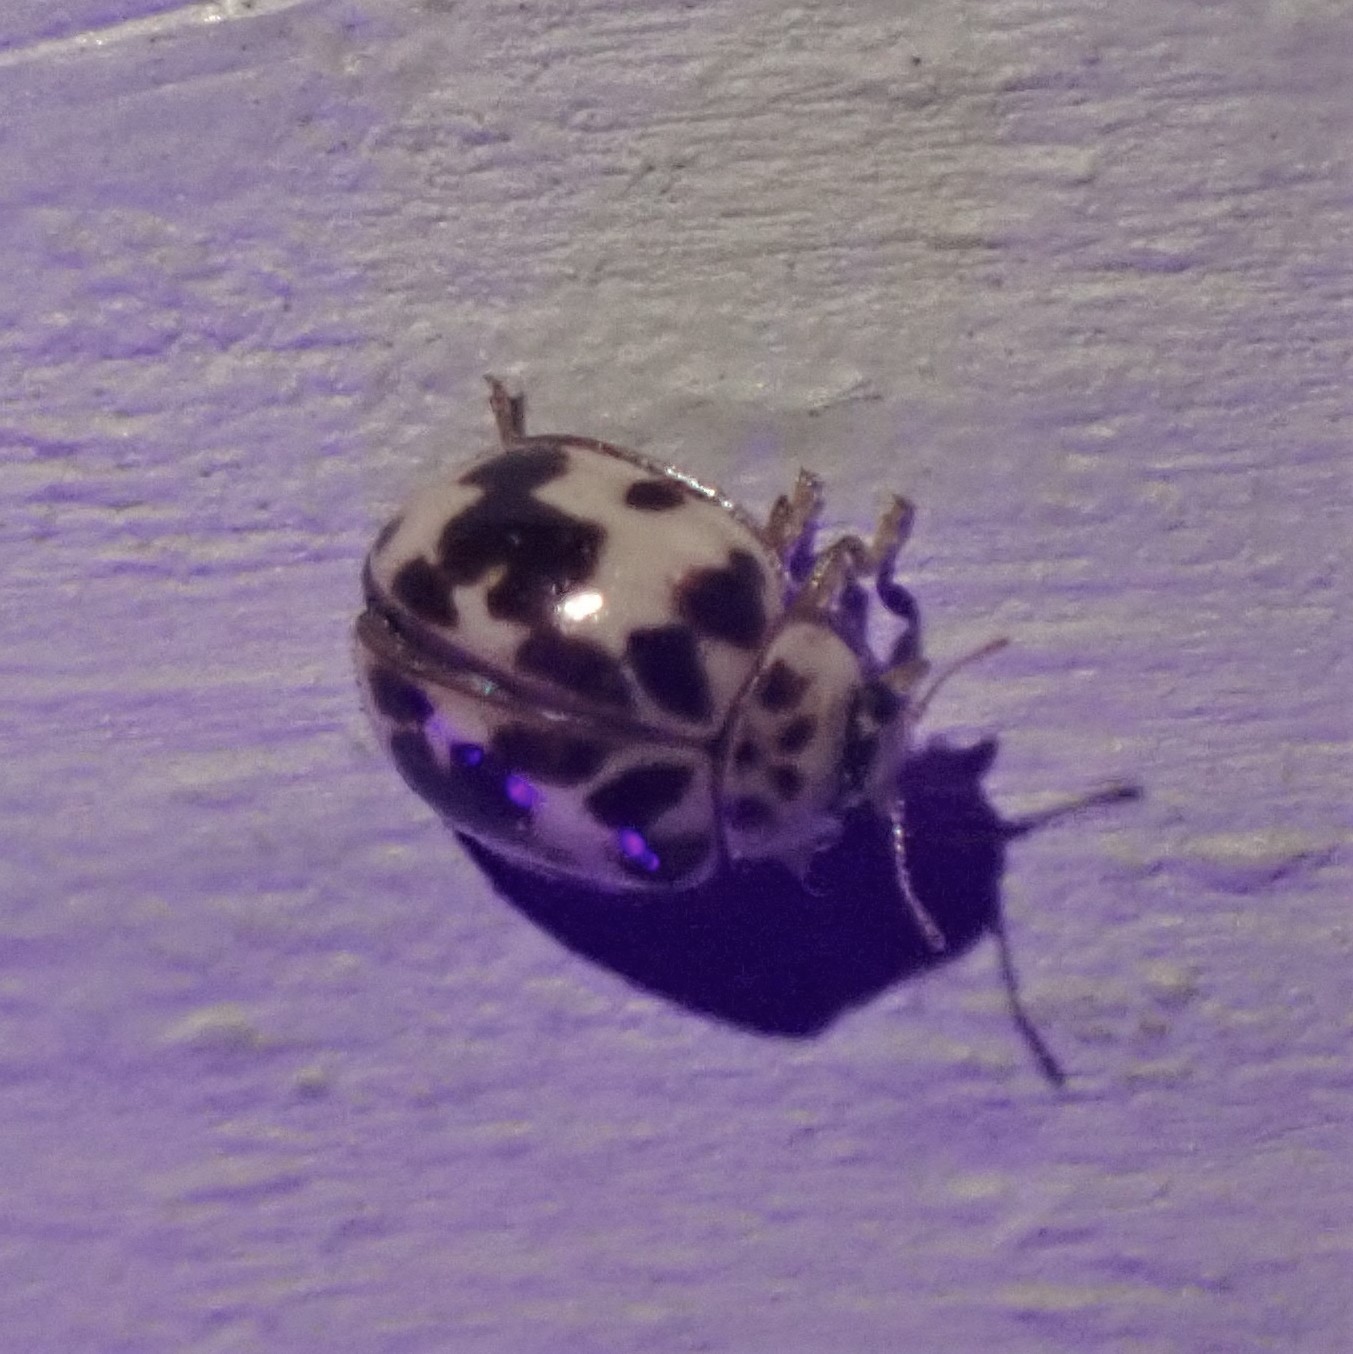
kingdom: Animalia
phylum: Arthropoda
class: Insecta
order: Coleoptera
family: Coccinellidae
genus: Psyllobora
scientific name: Psyllobora borealis
